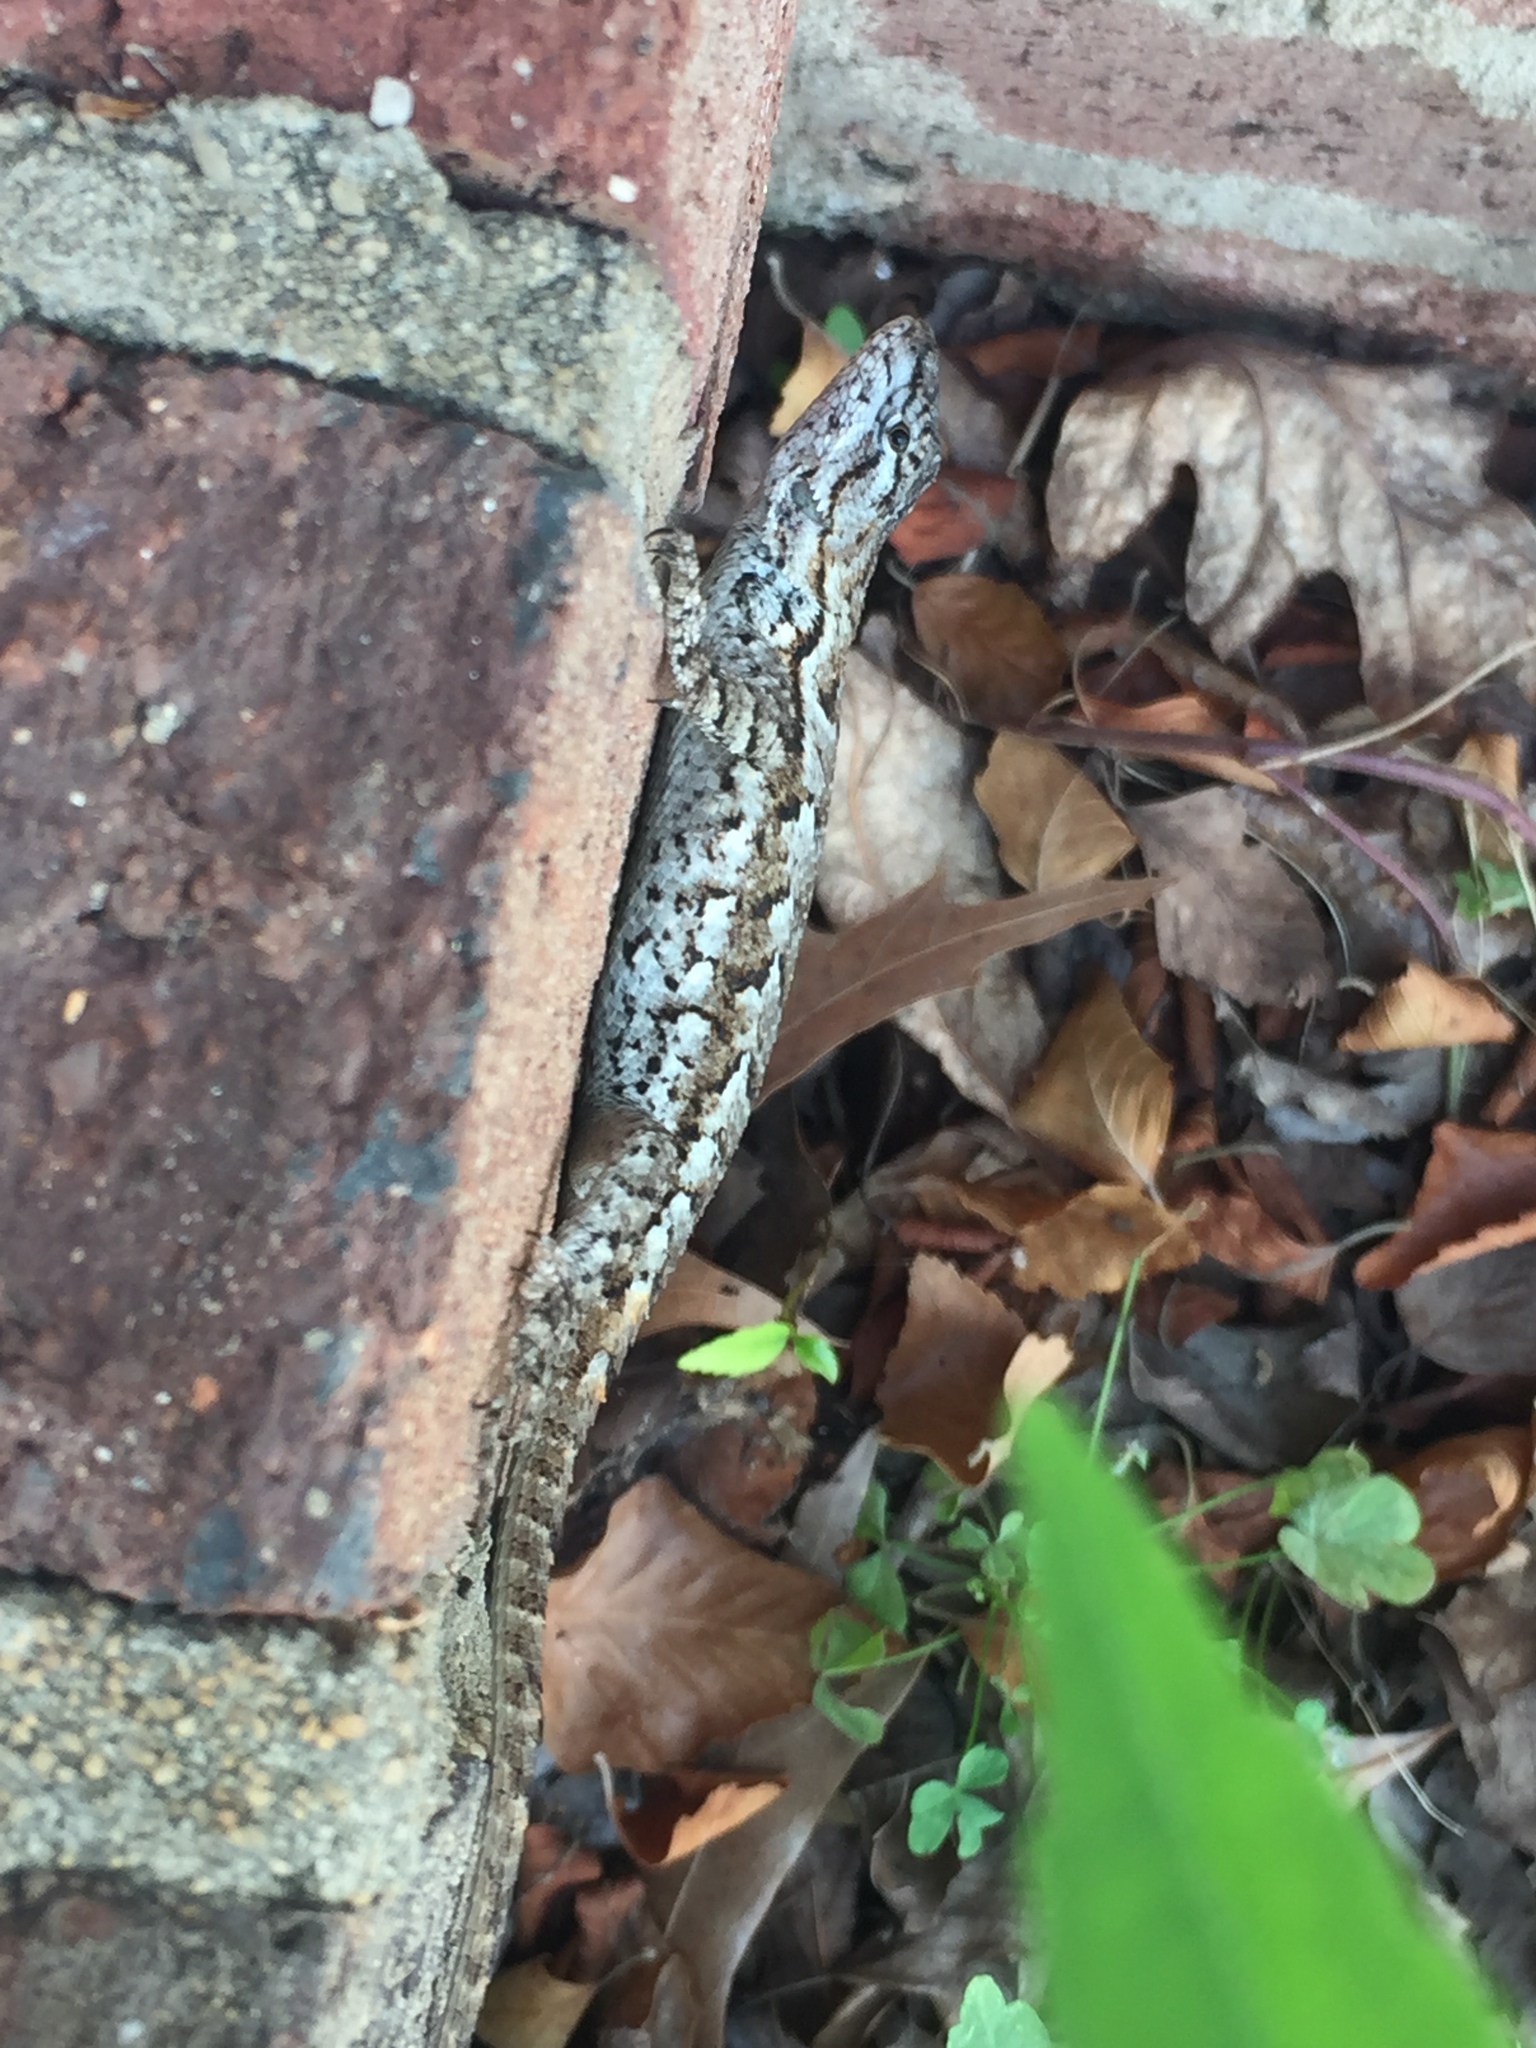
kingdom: Animalia
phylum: Chordata
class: Squamata
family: Phrynosomatidae
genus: Sceloporus
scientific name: Sceloporus undulatus
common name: Eastern fence lizard
